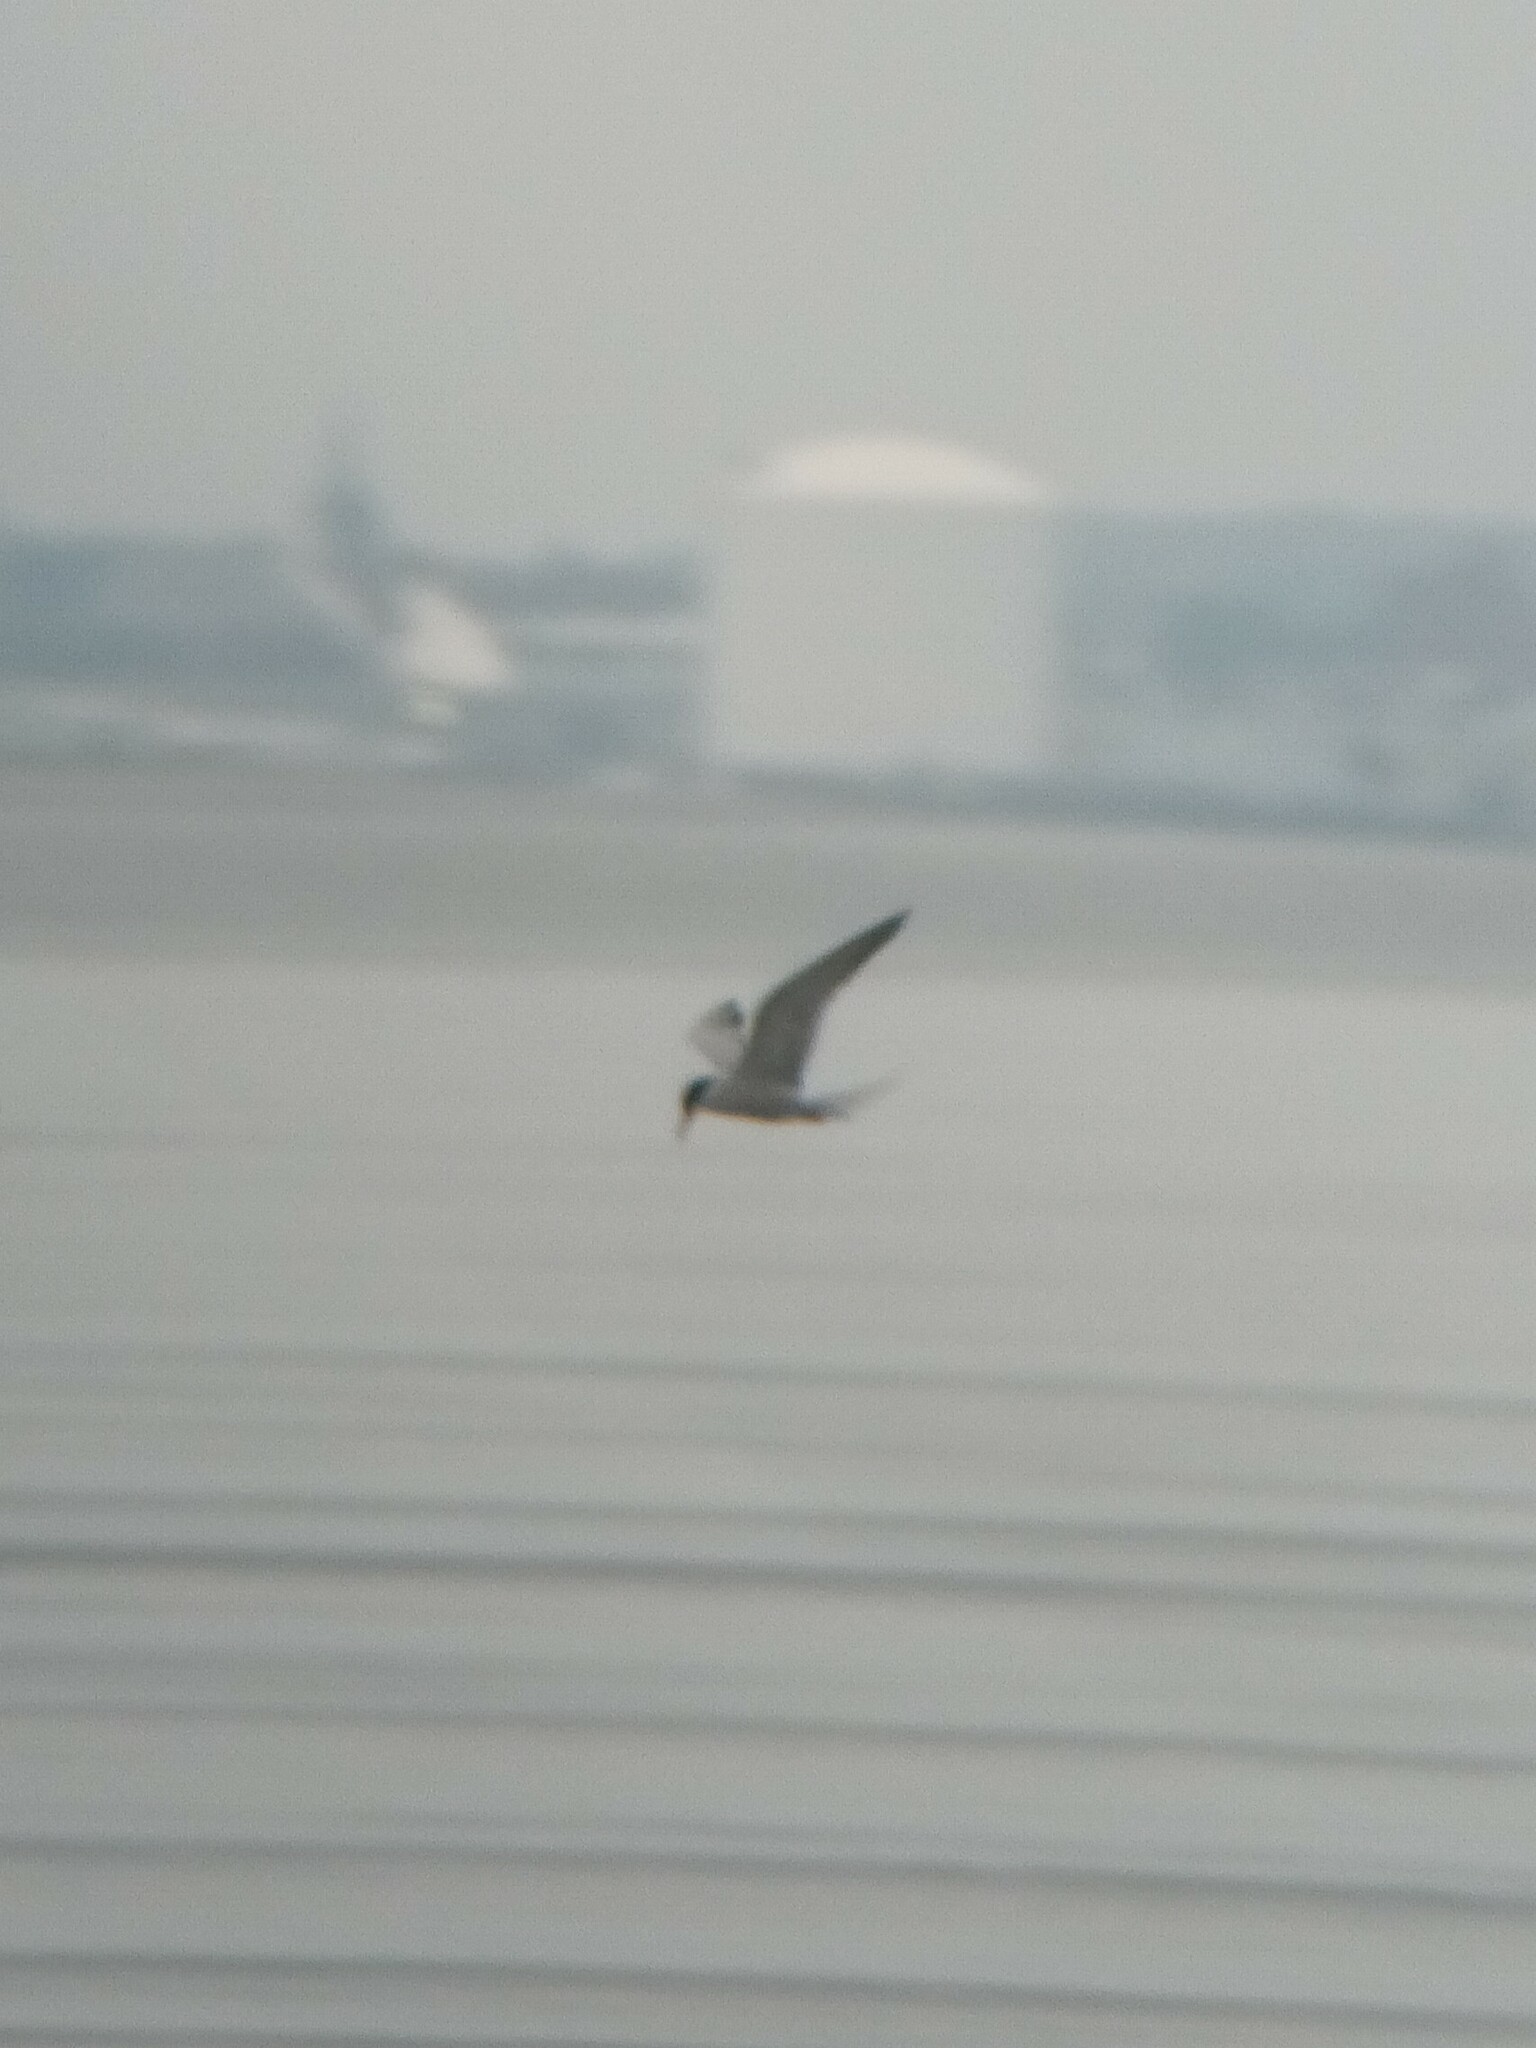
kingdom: Animalia
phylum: Chordata
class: Aves
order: Charadriiformes
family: Laridae
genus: Sterna
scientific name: Sterna hirundo
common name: Common tern
